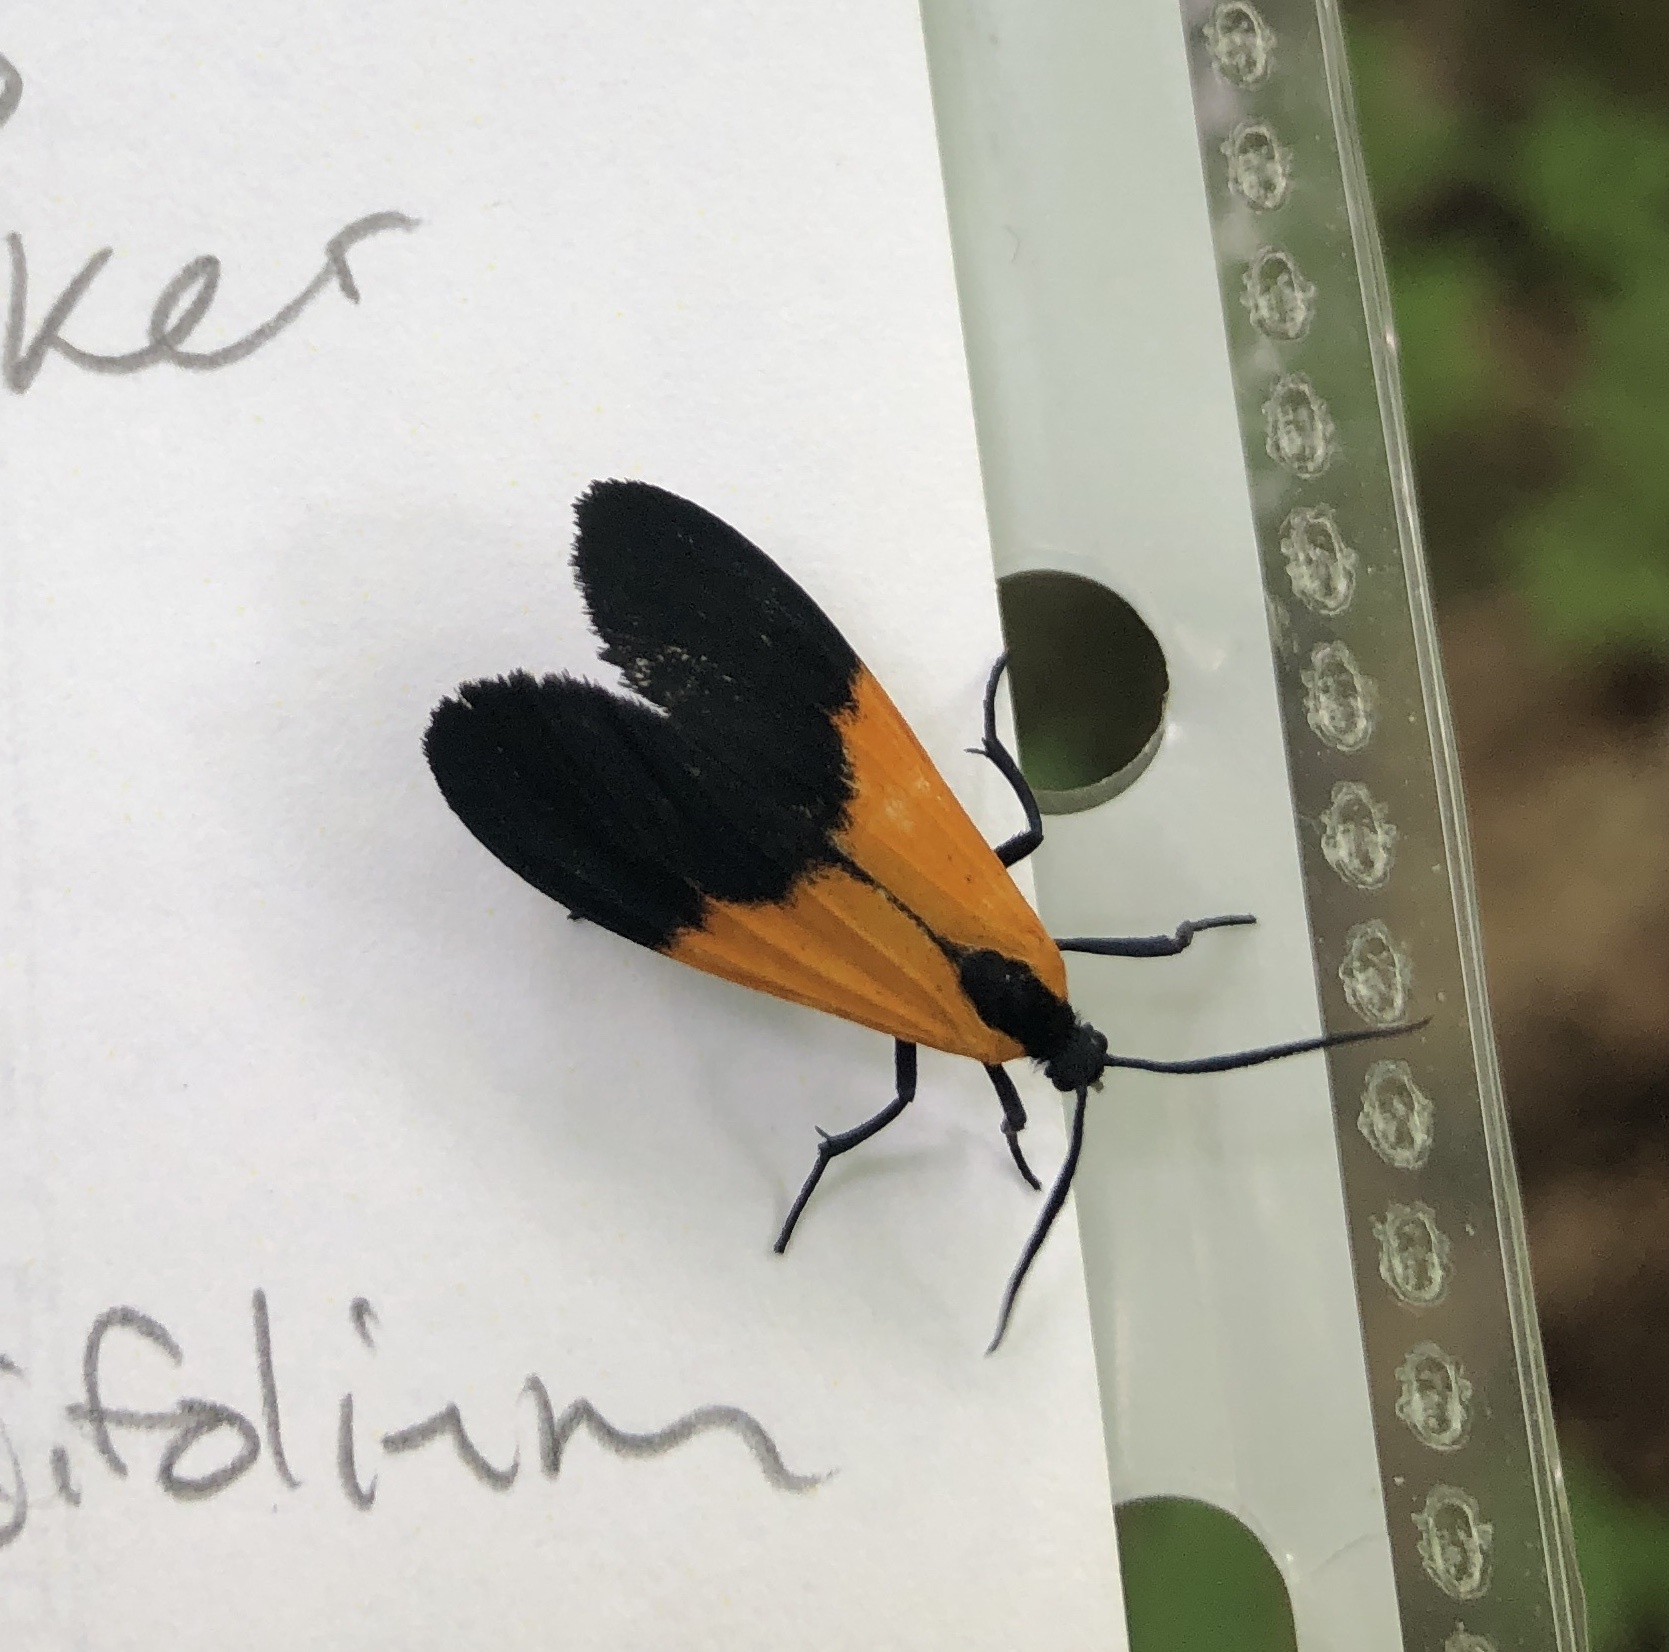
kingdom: Animalia
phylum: Arthropoda
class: Insecta
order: Lepidoptera
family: Erebidae
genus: Lycomorpha
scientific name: Lycomorpha pholus
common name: Black-and-yellow lichen moth
